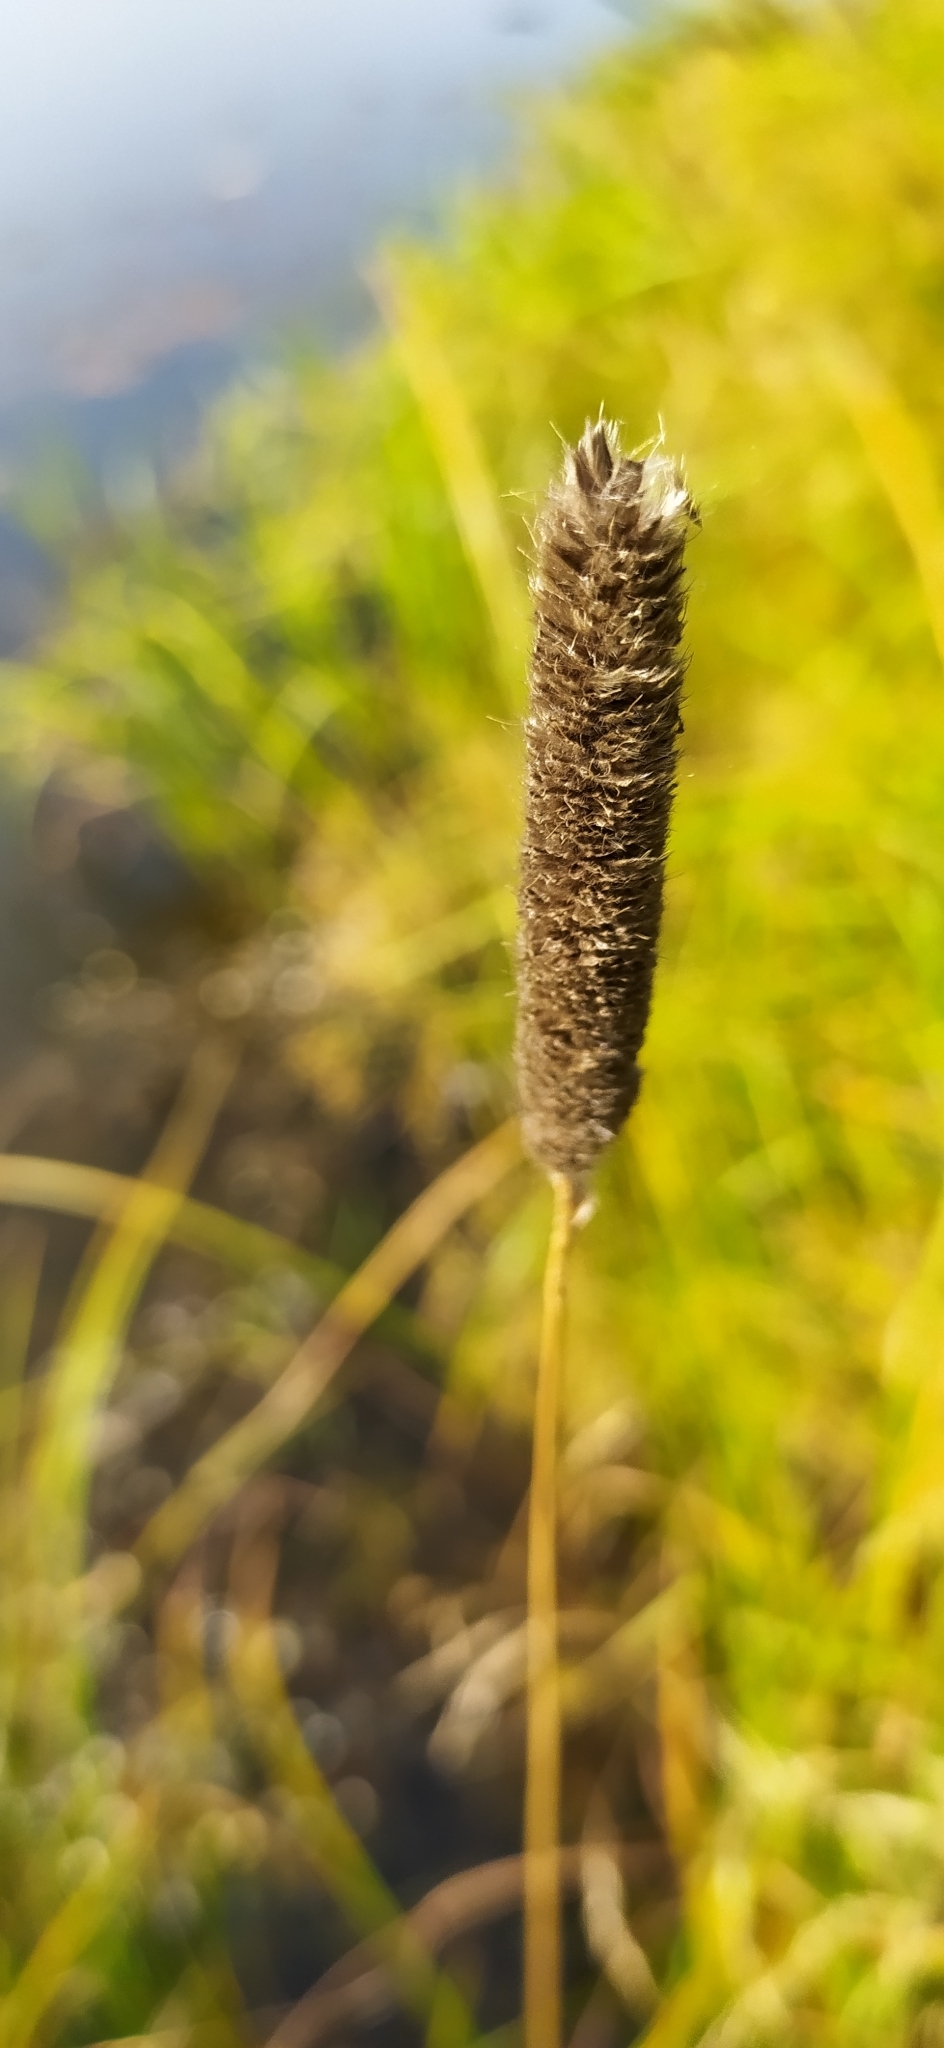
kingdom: Plantae
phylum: Tracheophyta
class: Liliopsida
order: Poales
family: Poaceae
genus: Phleum
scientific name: Phleum pratense
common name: Timothy grass
